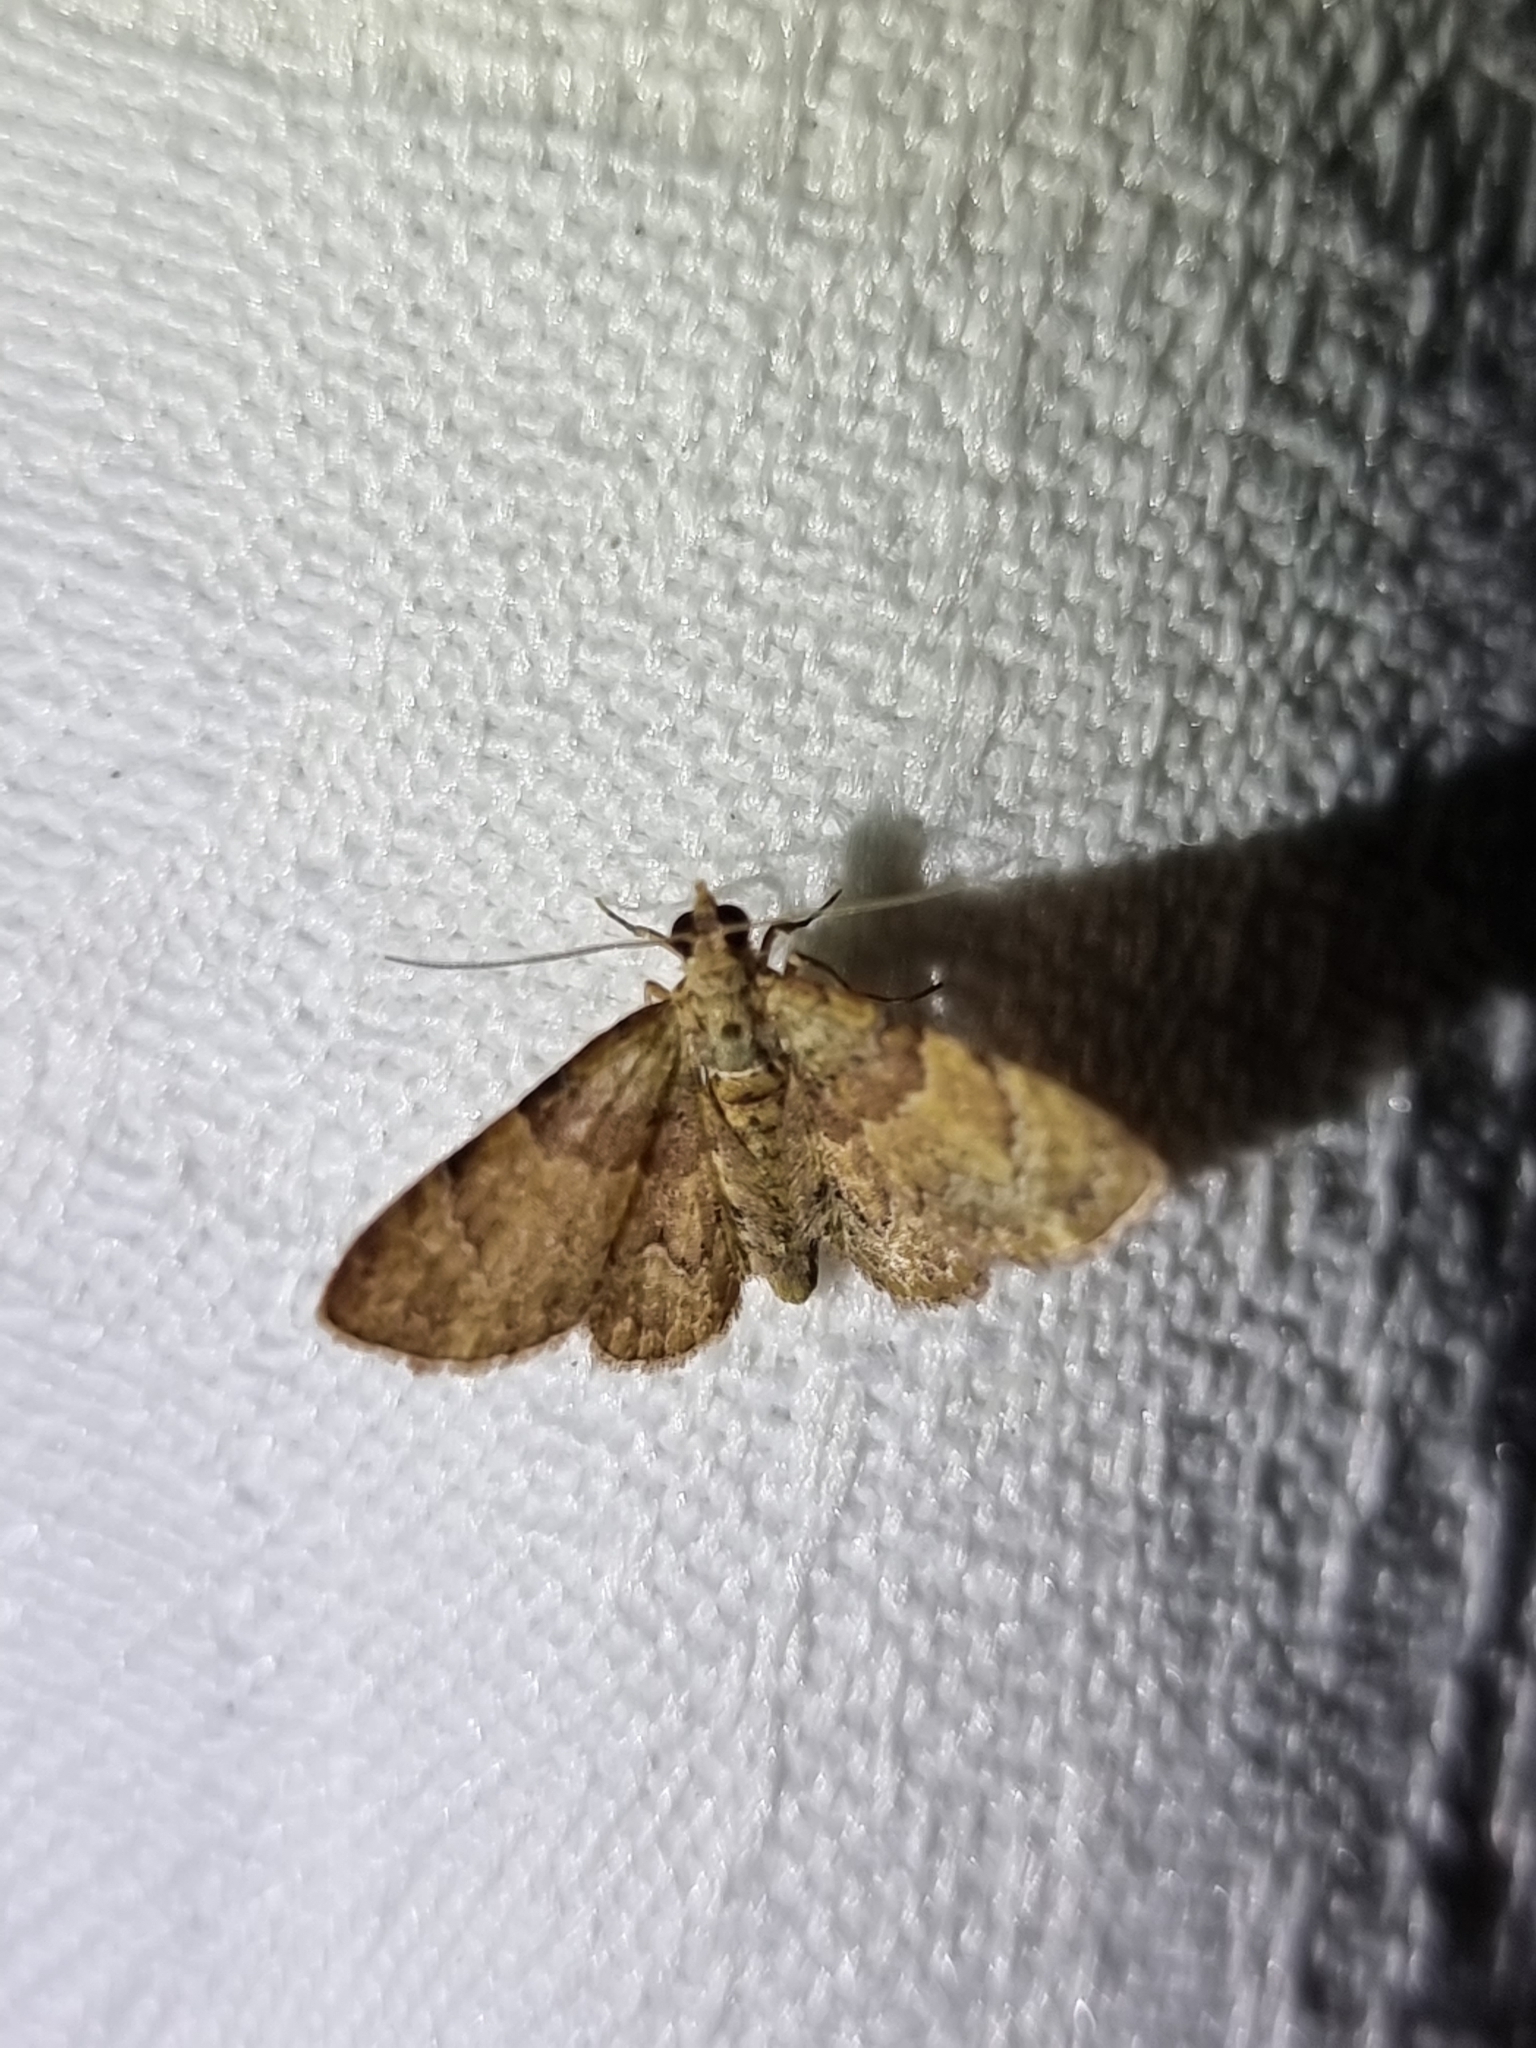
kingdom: Animalia
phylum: Arthropoda
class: Insecta
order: Lepidoptera
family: Geometridae
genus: Gymnoscelis
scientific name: Gymnoscelis derogata
